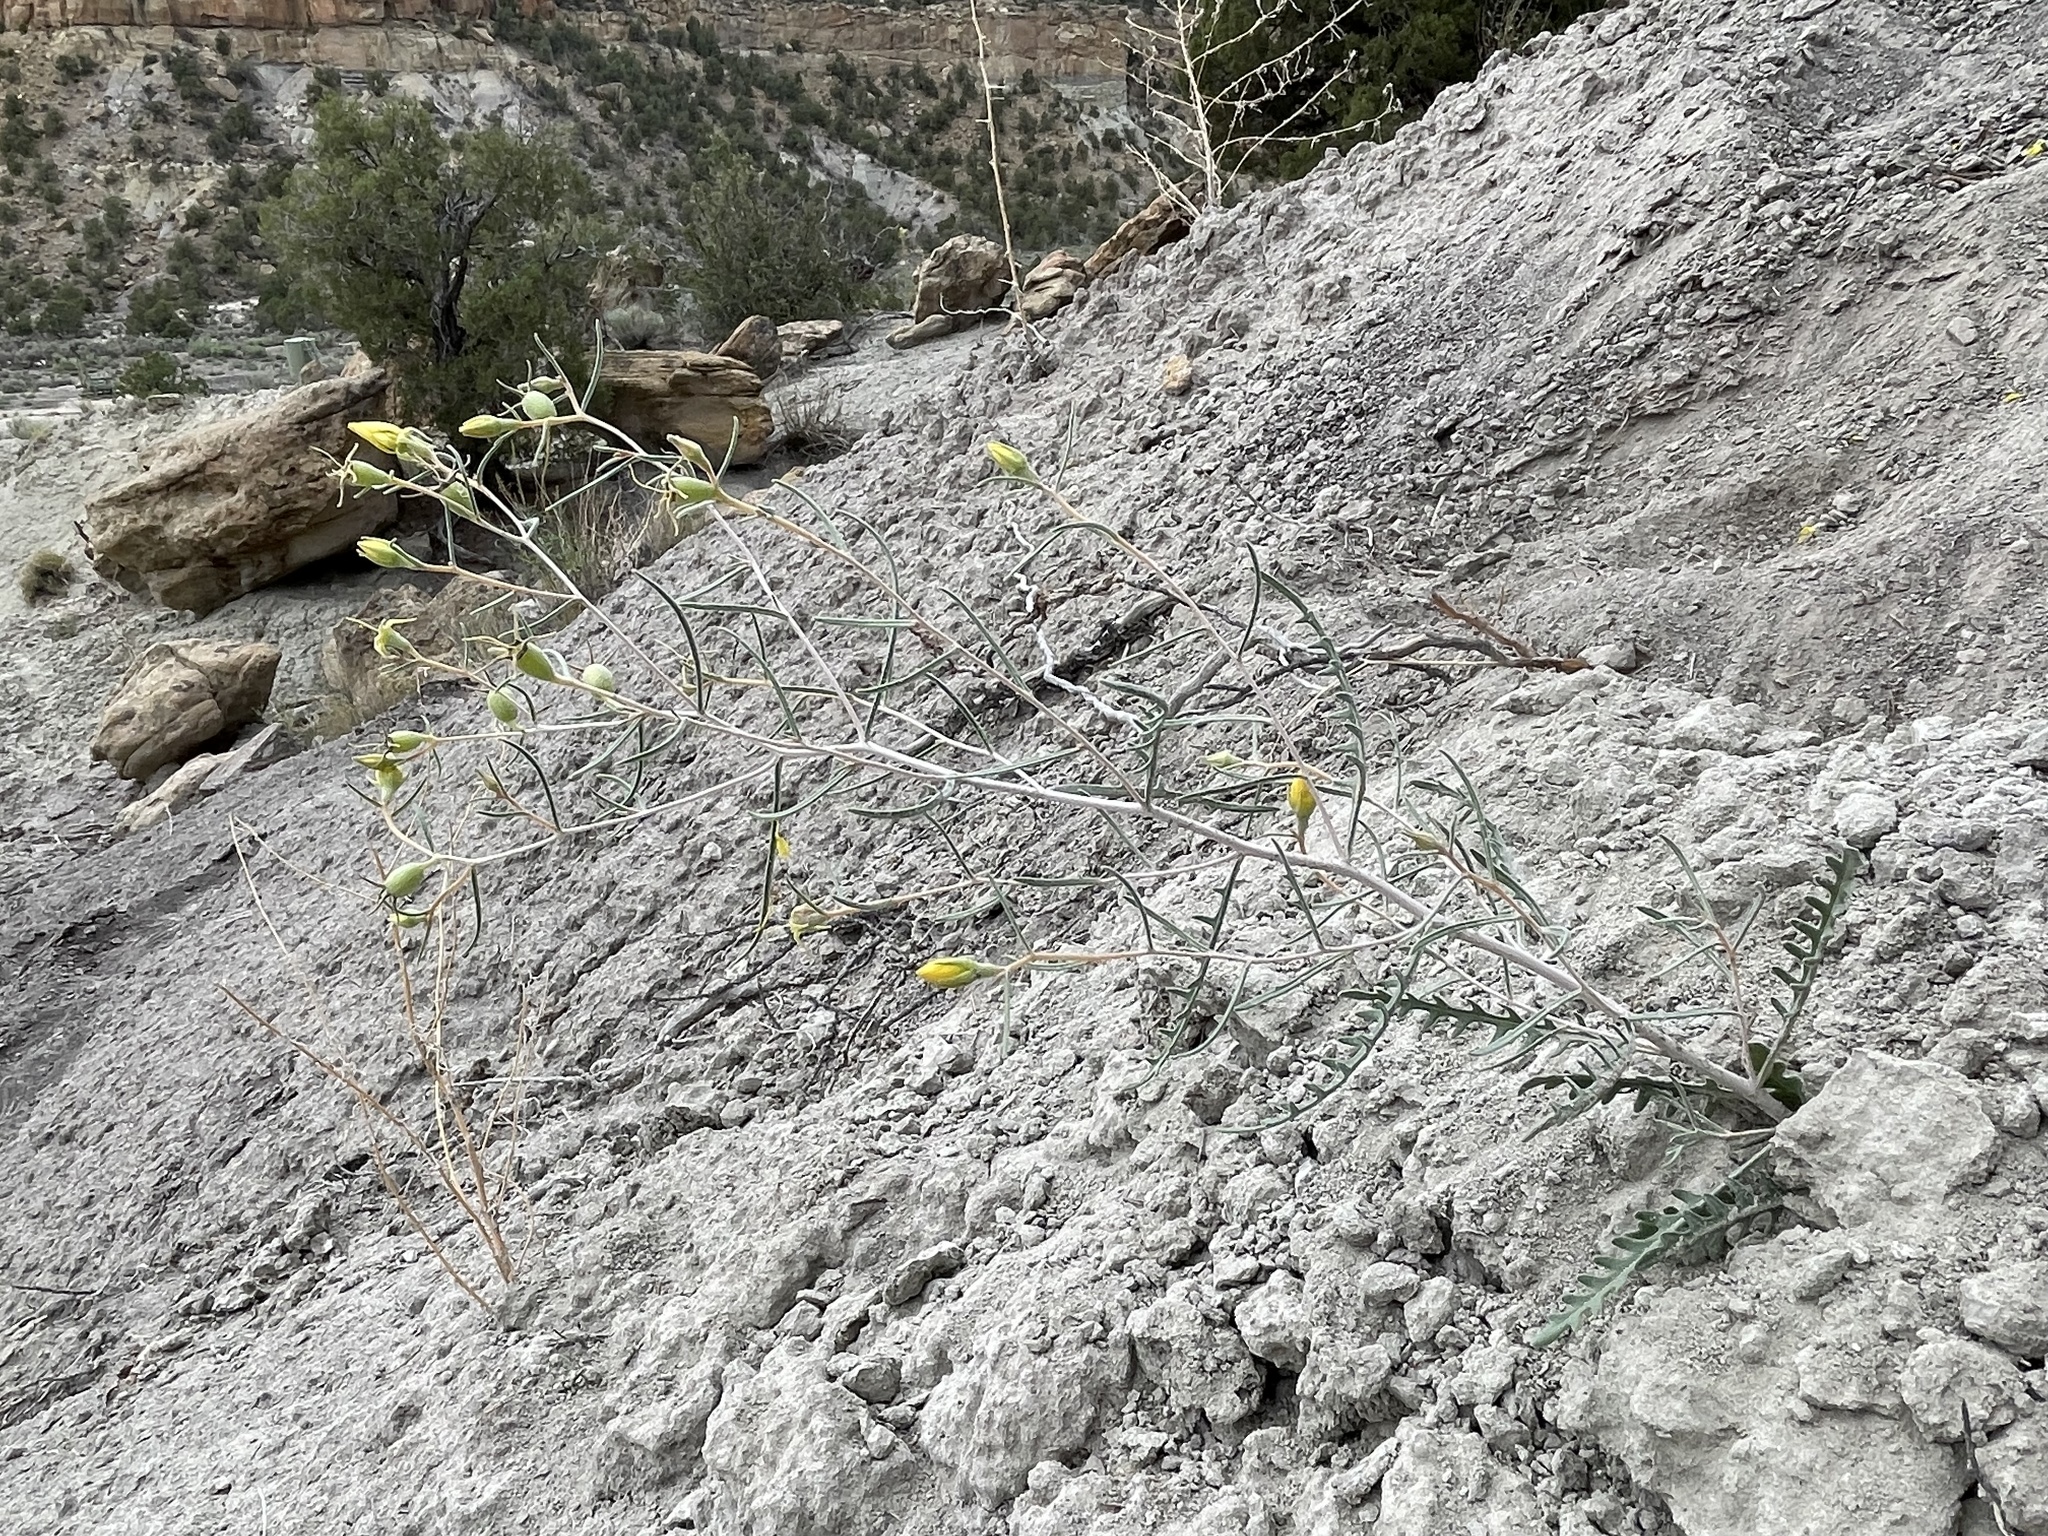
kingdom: Plantae
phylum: Tracheophyta
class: Magnoliopsida
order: Cornales
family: Loasaceae
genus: Mentzelia
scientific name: Mentzelia sivinskii
